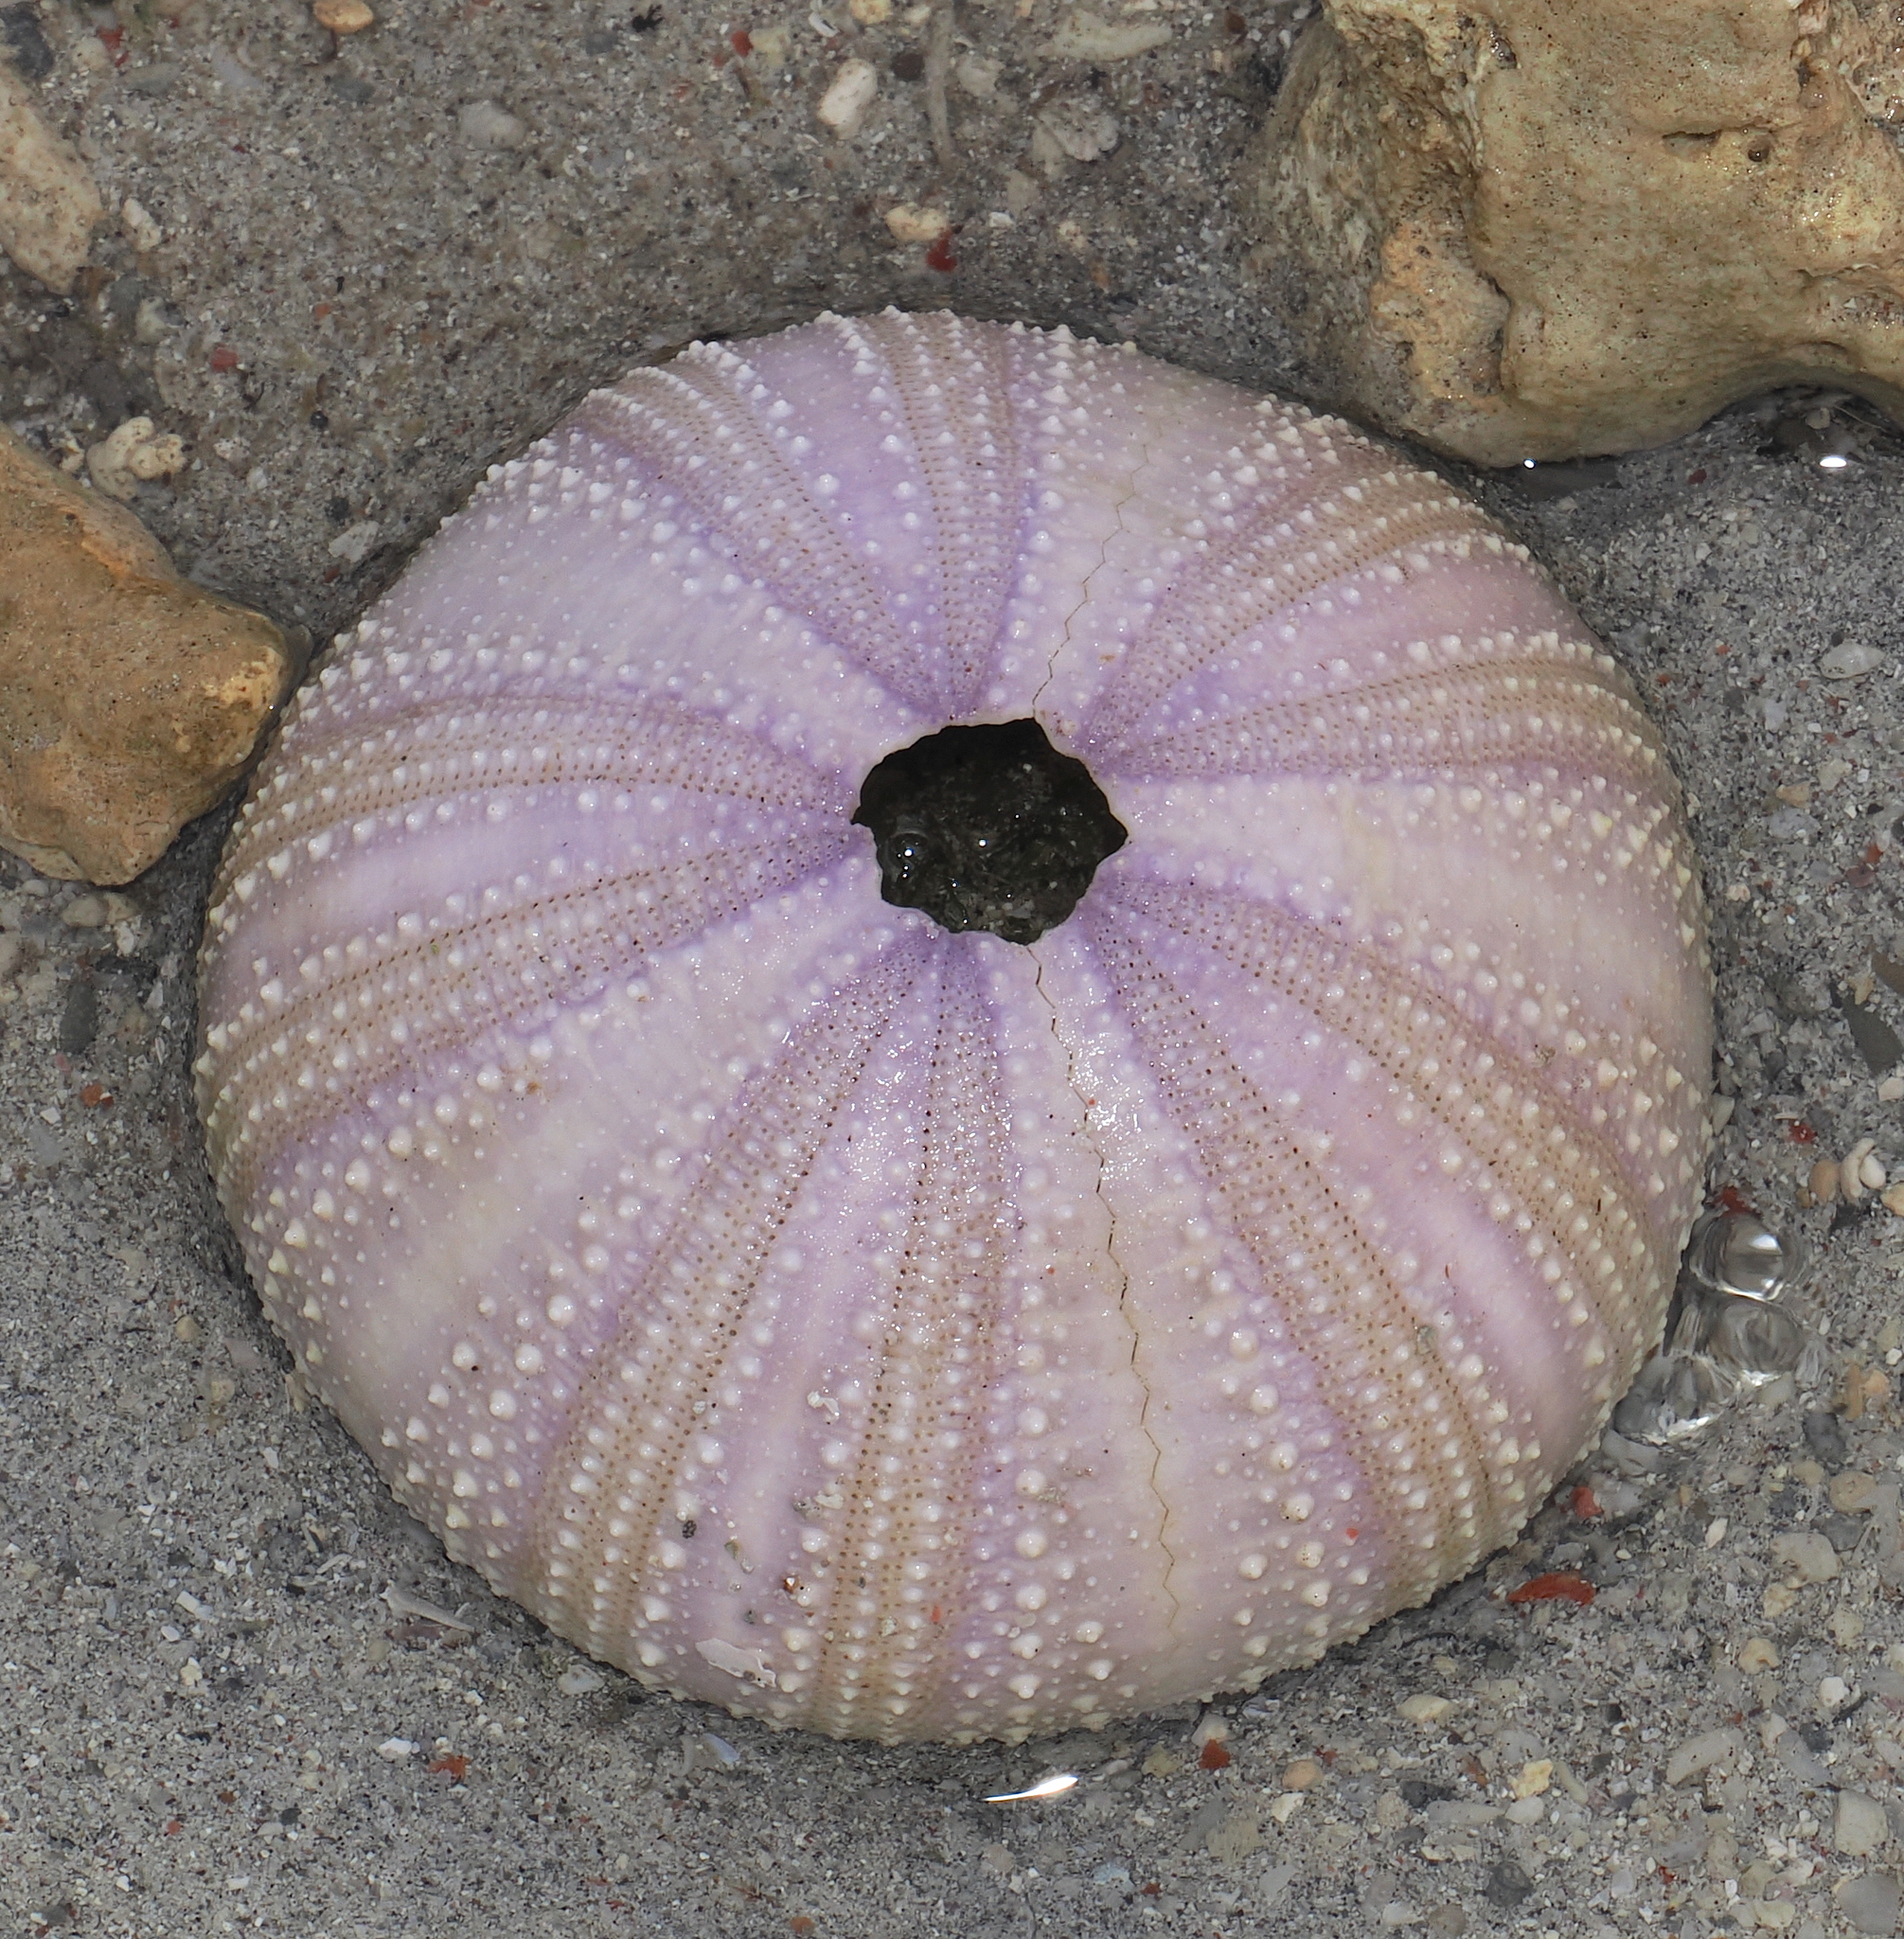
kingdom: Animalia
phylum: Echinodermata
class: Echinoidea
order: Camarodonta
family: Toxopneustidae
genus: Tripneustes
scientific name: Tripneustes gratilla
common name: Bischofsmützenseeigel
